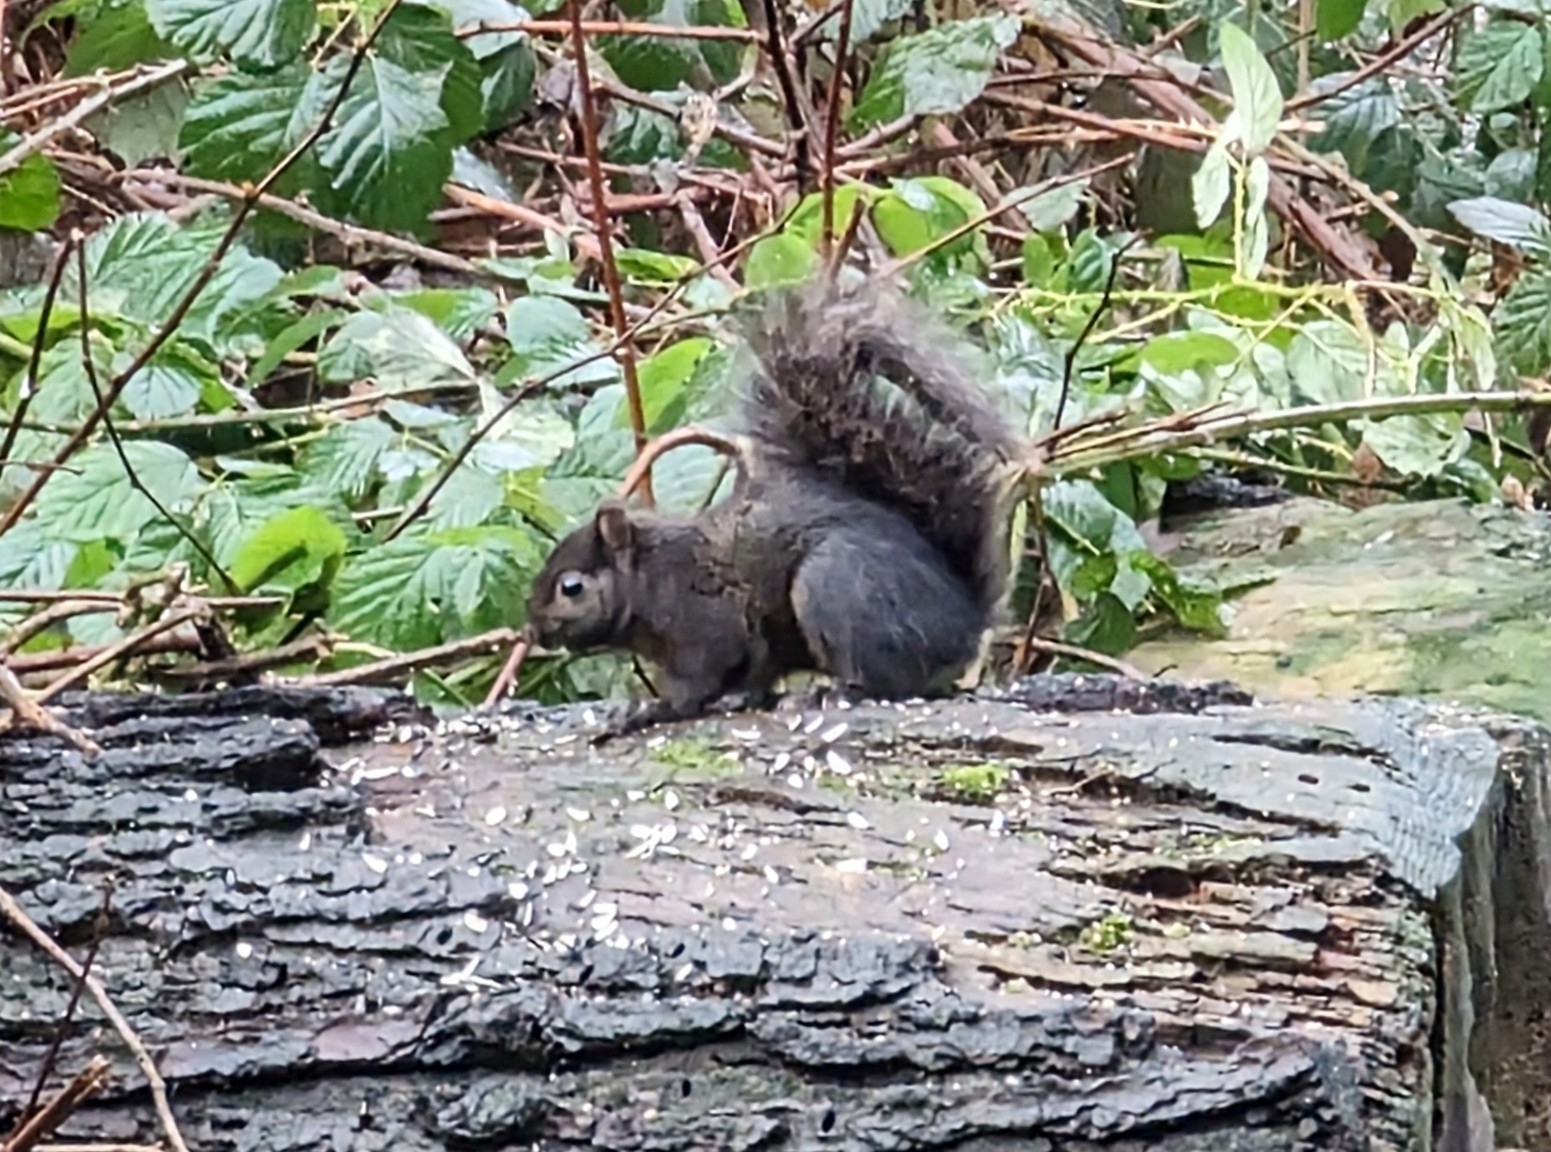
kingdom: Animalia
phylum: Chordata
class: Mammalia
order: Rodentia
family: Sciuridae
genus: Sciurus
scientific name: Sciurus carolinensis
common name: Eastern gray squirrel
